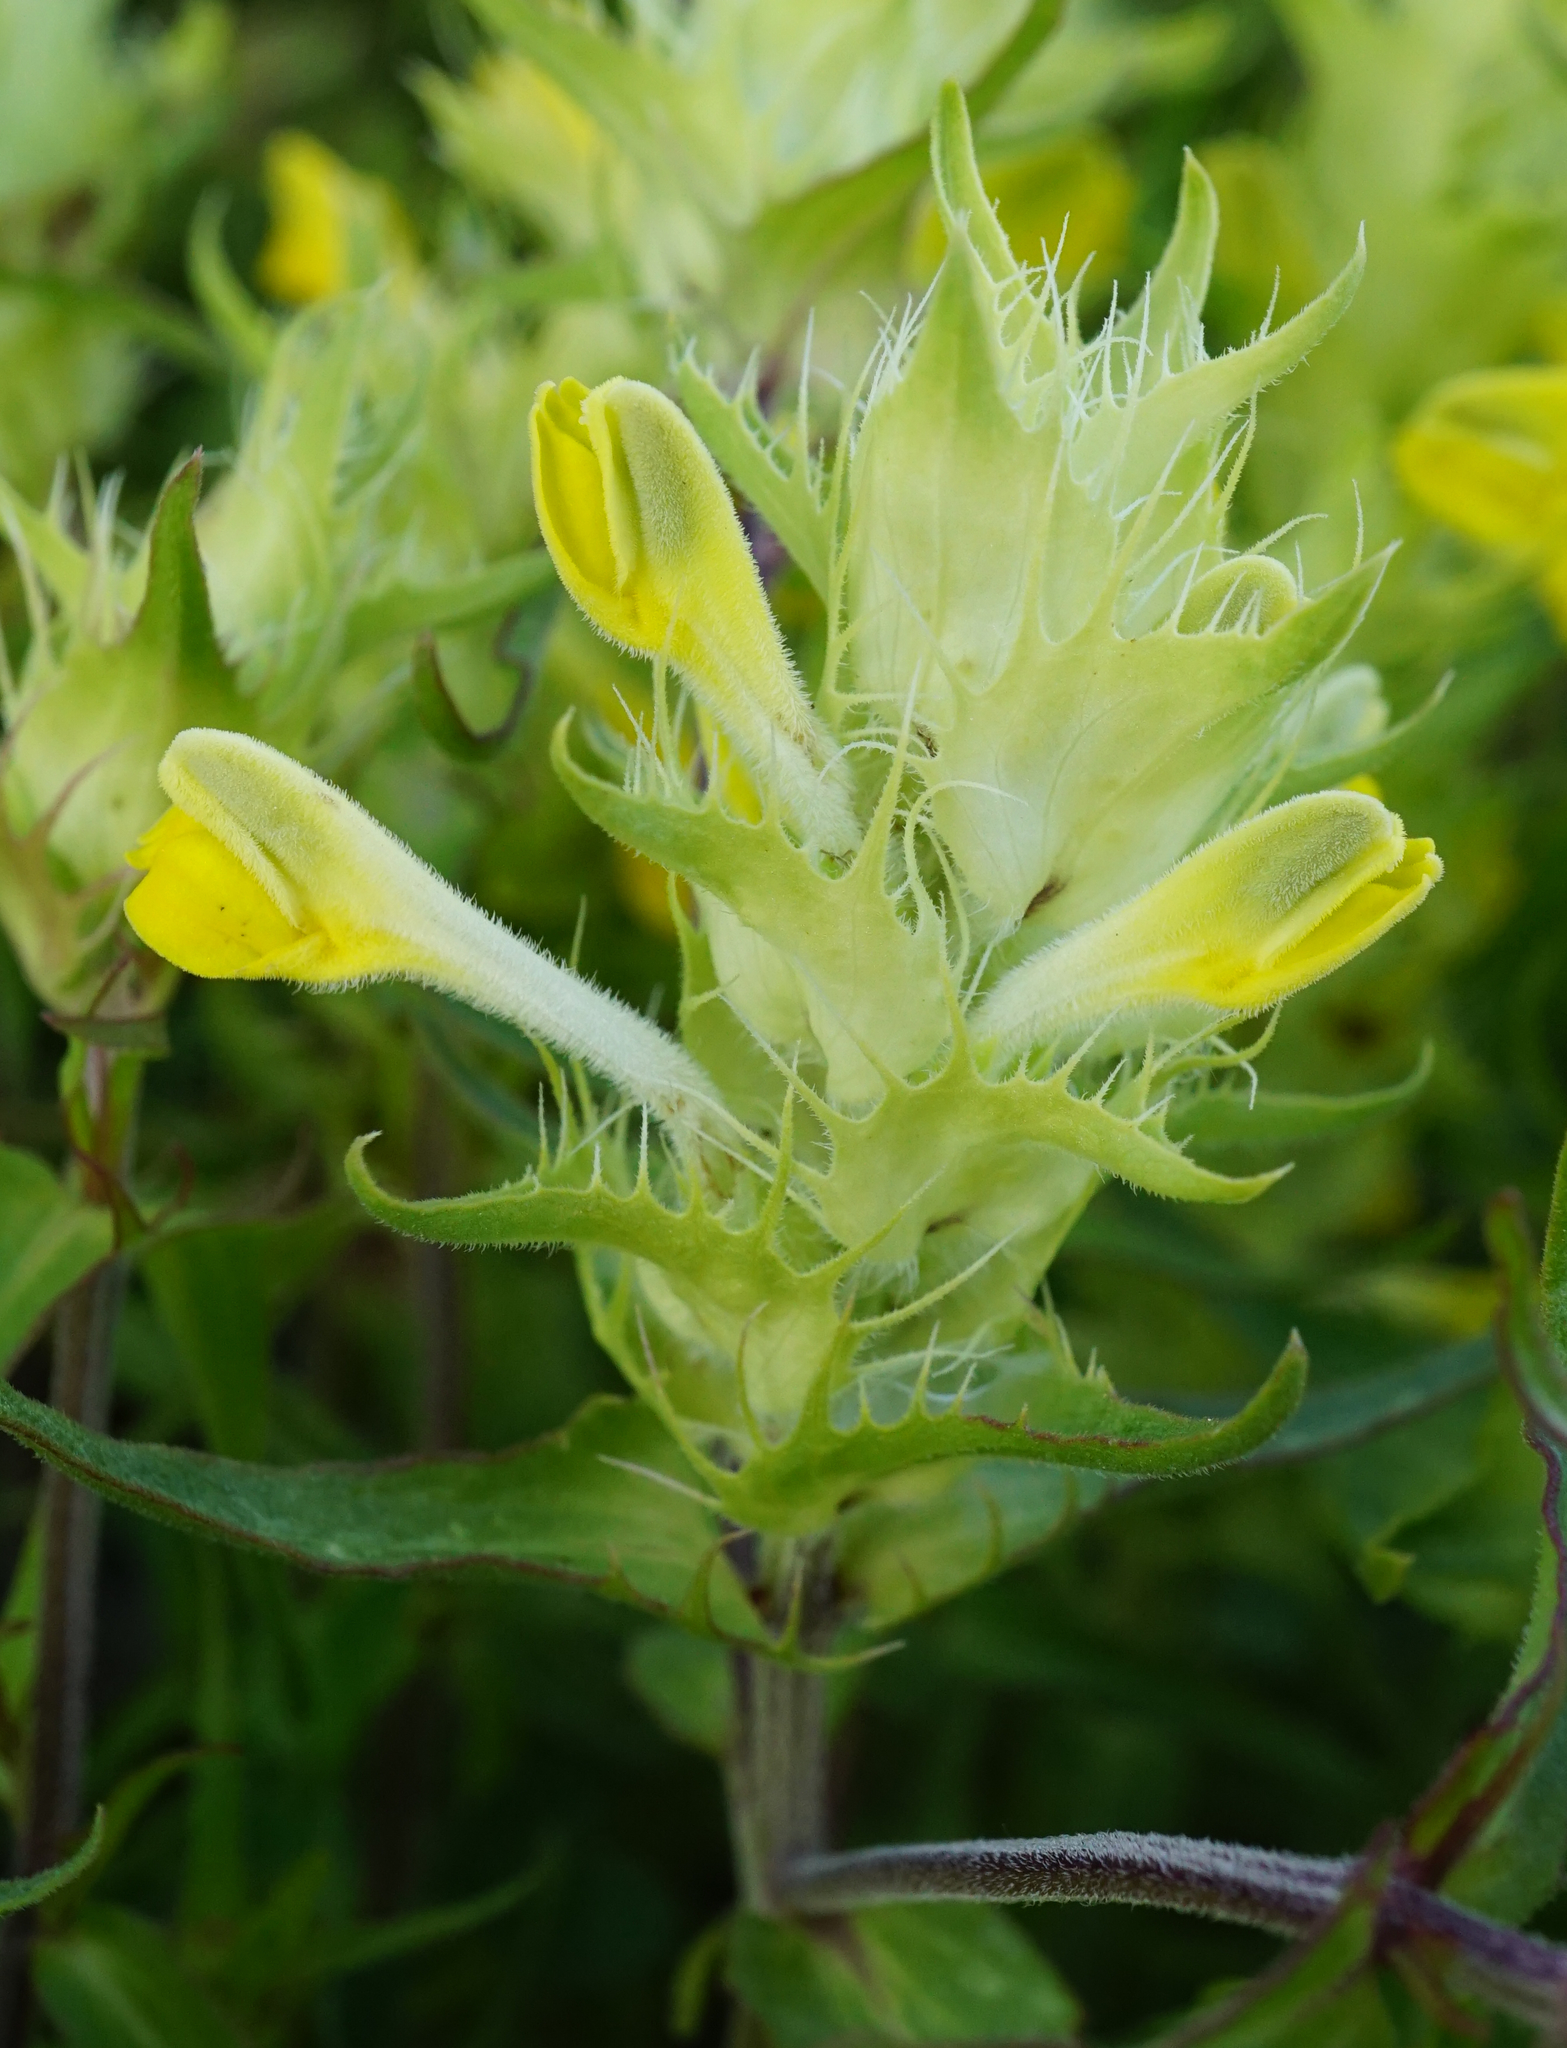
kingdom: Plantae
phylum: Tracheophyta
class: Magnoliopsida
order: Lamiales
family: Orobanchaceae
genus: Melampyrum
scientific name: Melampyrum barbatum
